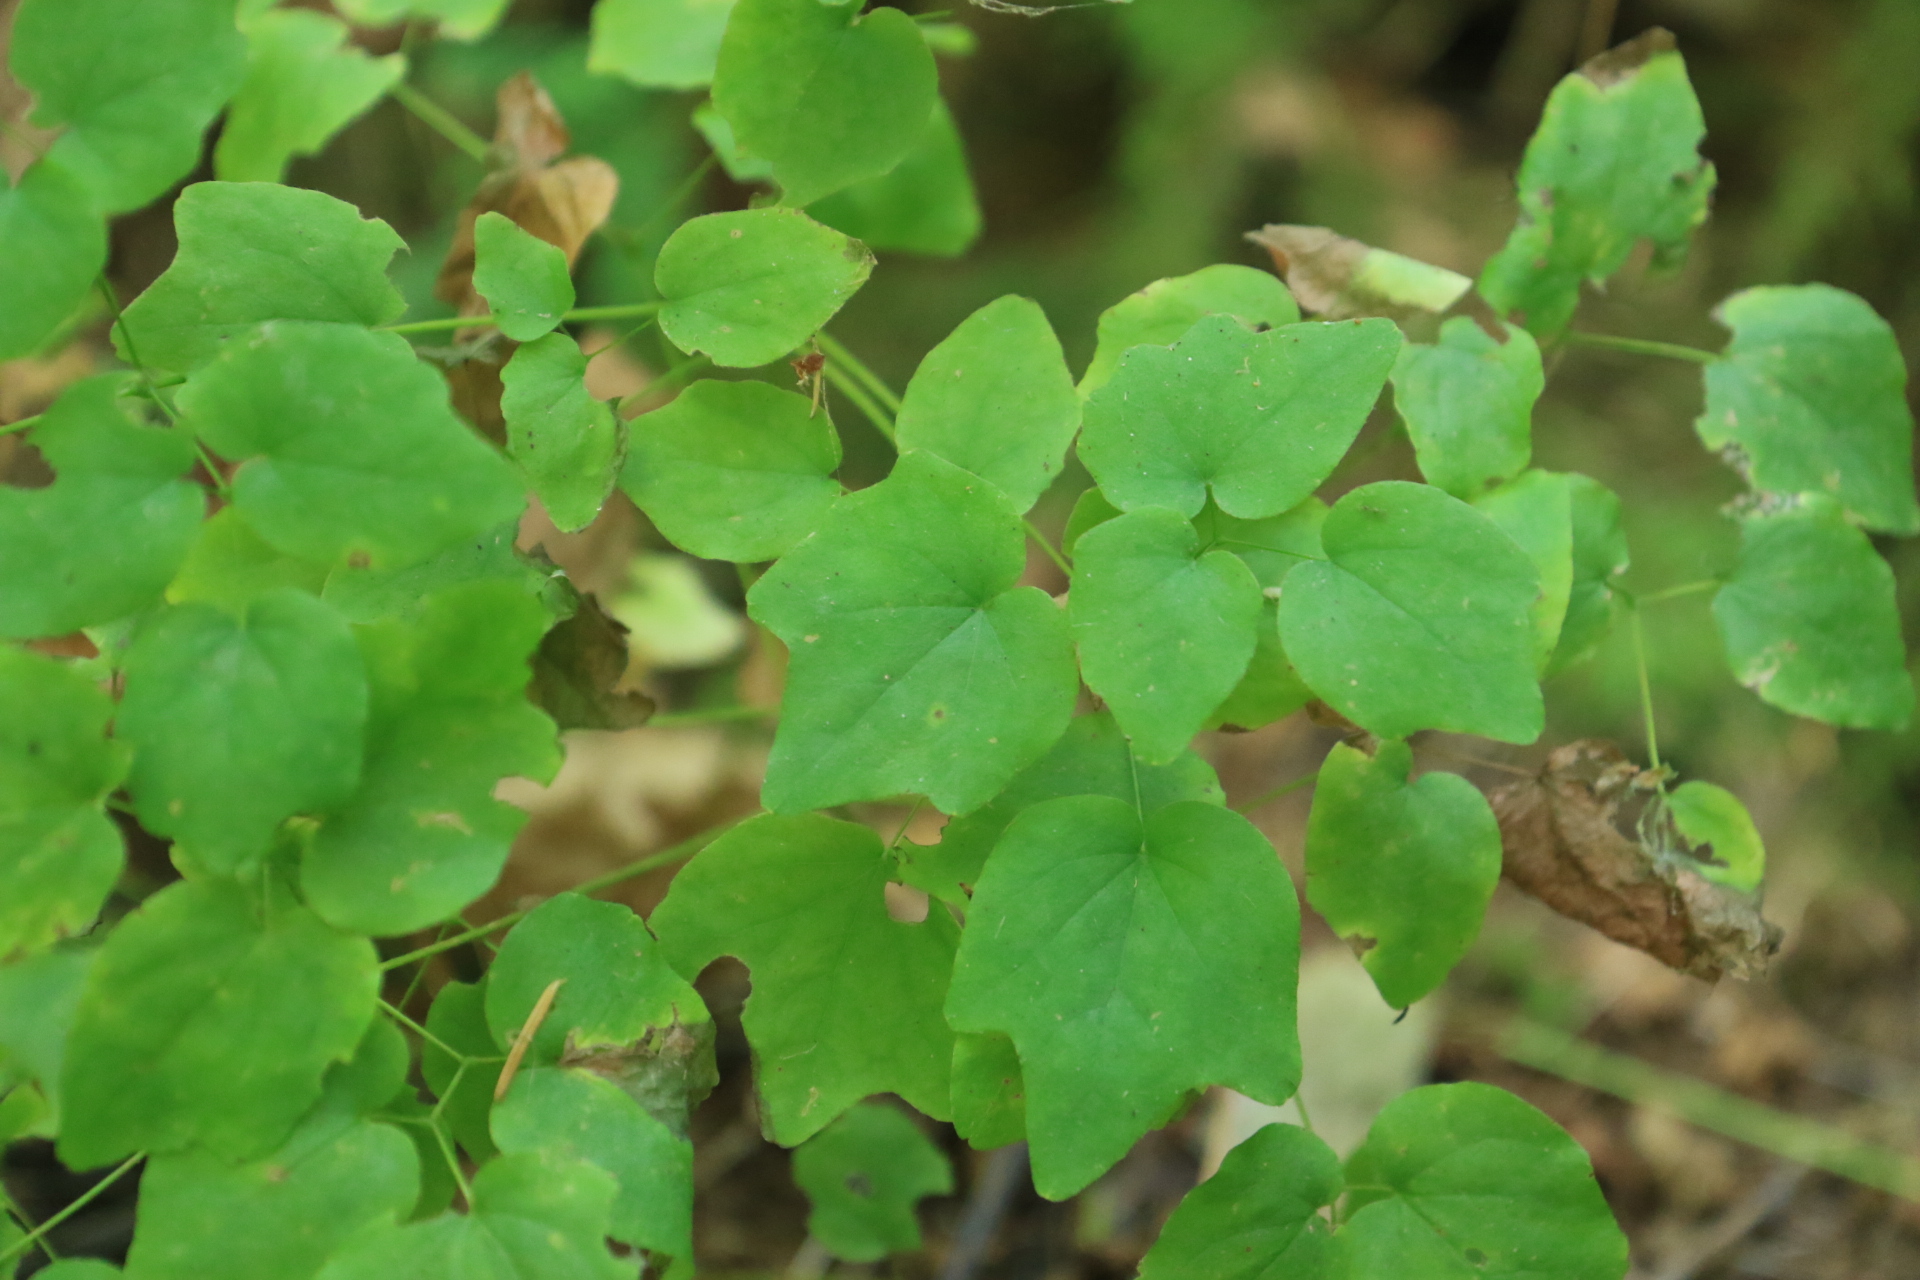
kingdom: Plantae
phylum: Tracheophyta
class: Magnoliopsida
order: Ranunculales
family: Berberidaceae
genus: Vancouveria
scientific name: Vancouveria hexandra
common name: Northern inside-out-flower
